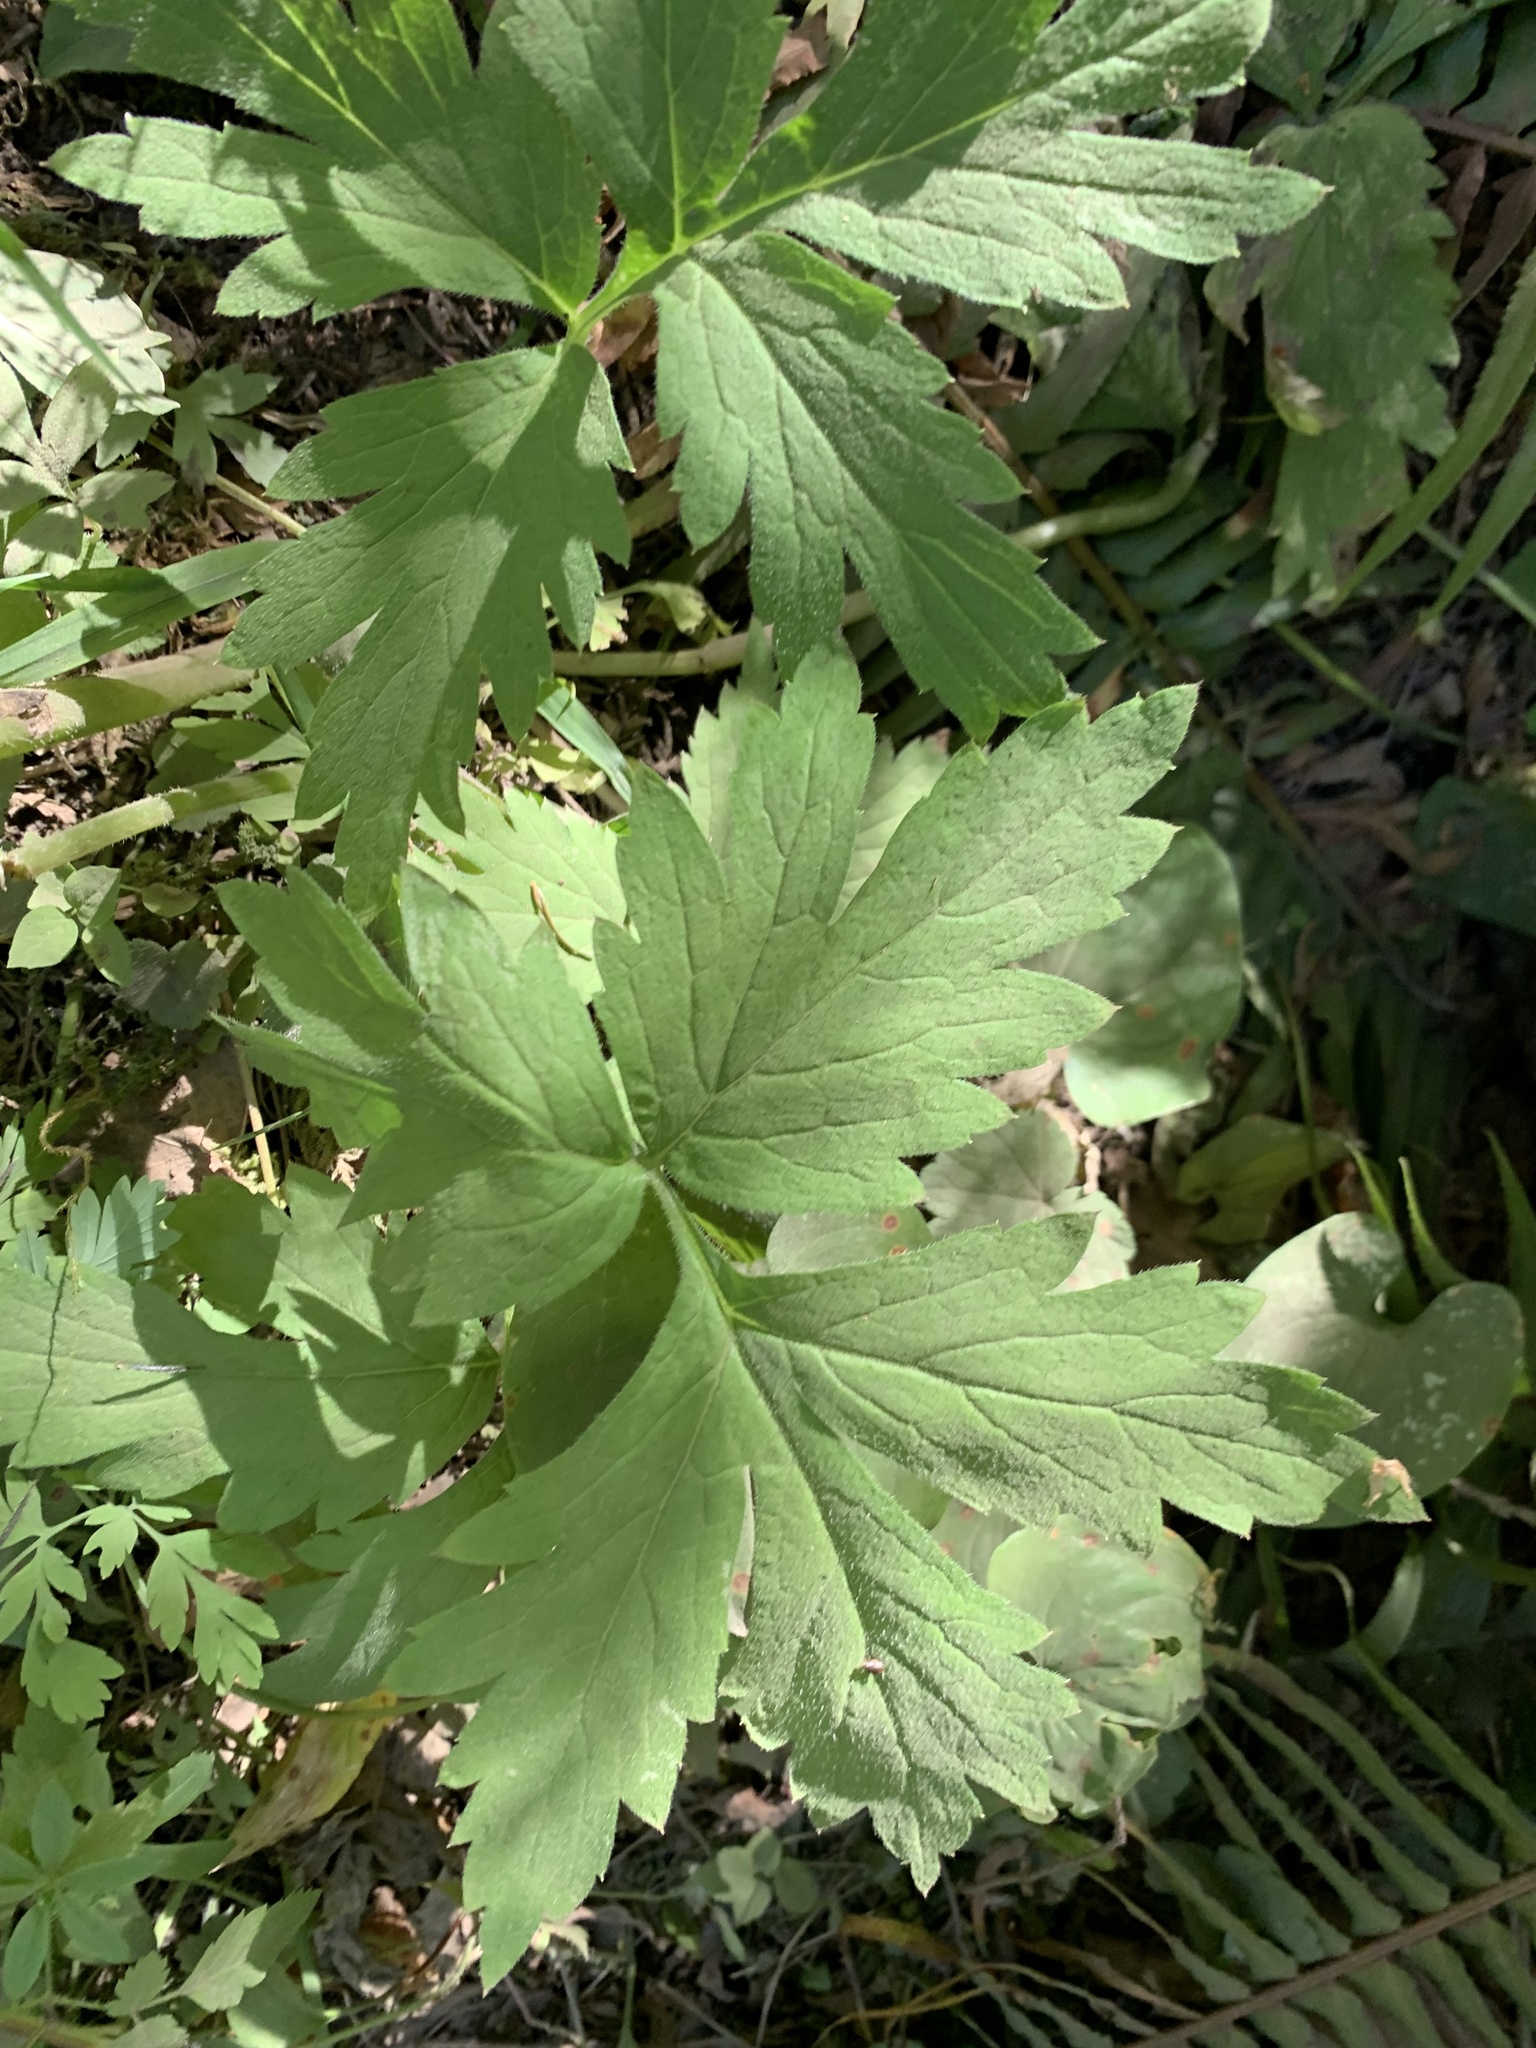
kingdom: Plantae
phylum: Tracheophyta
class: Magnoliopsida
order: Boraginales
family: Hydrophyllaceae
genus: Hydrophyllum
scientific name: Hydrophyllum tenuipes
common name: Pacific waterleaf
